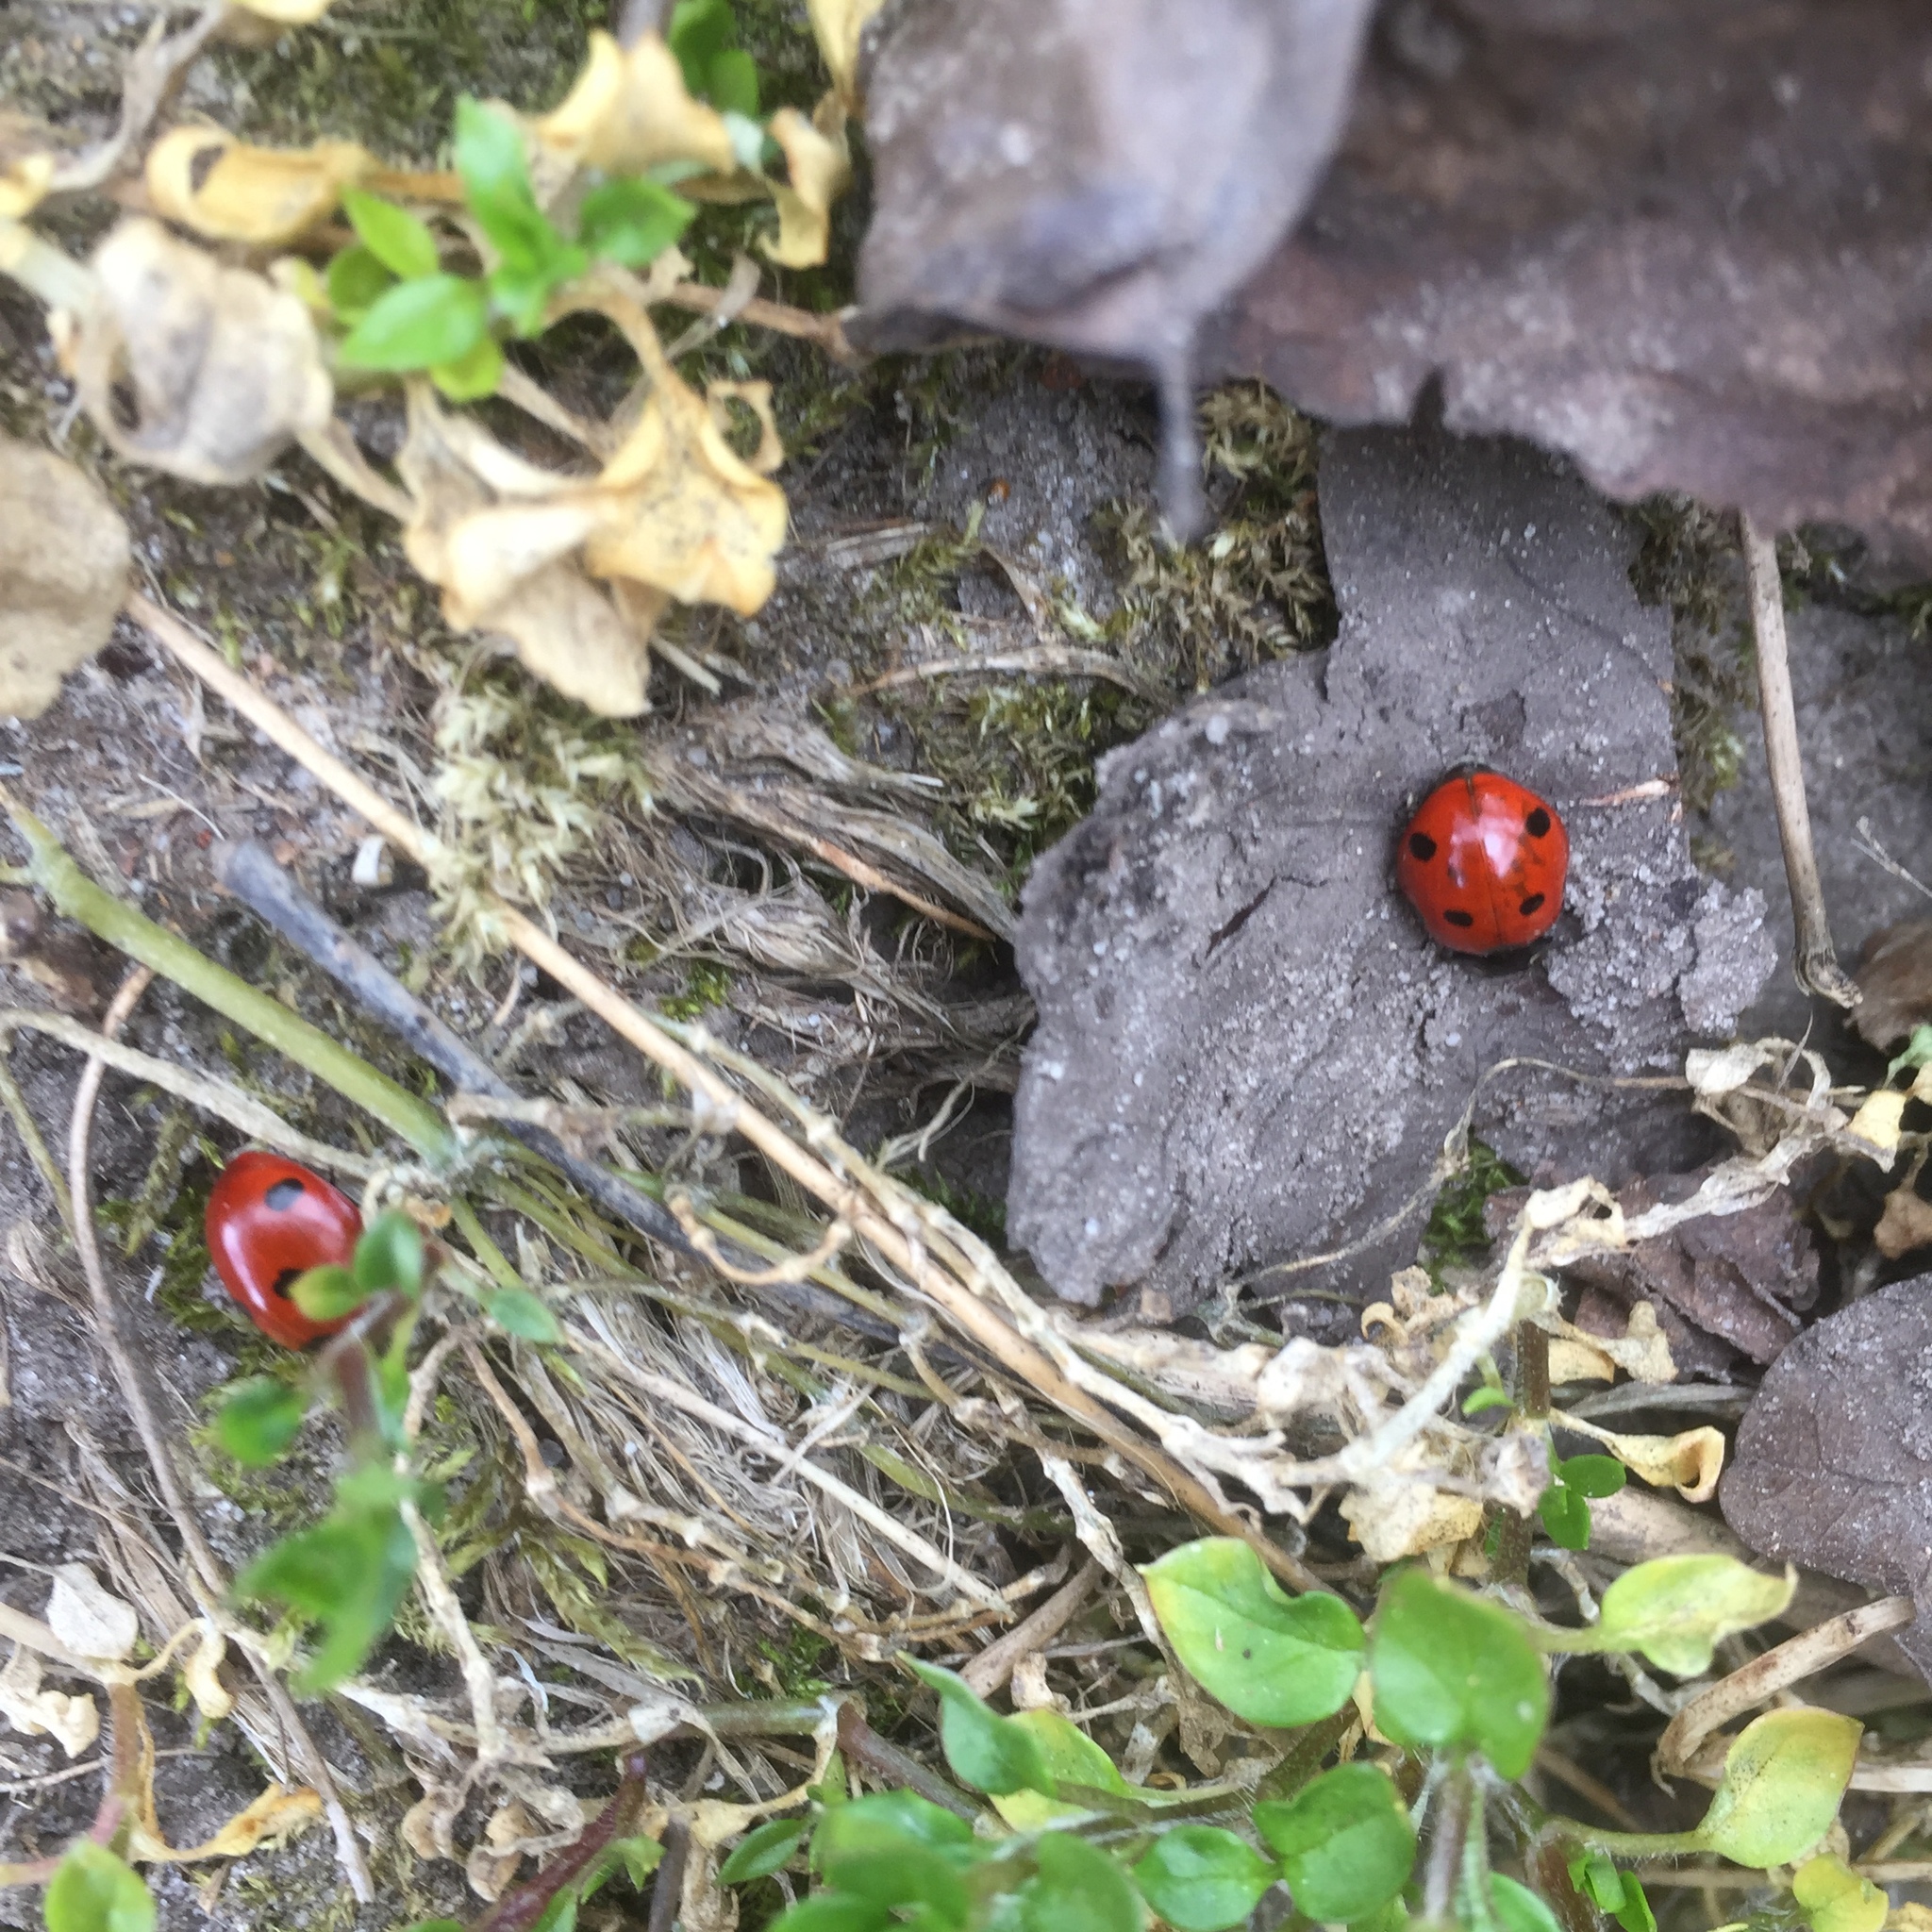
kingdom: Animalia
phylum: Arthropoda
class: Insecta
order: Coleoptera
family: Coccinellidae
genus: Coccinella
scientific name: Coccinella septempunctata
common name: Sevenspotted lady beetle
